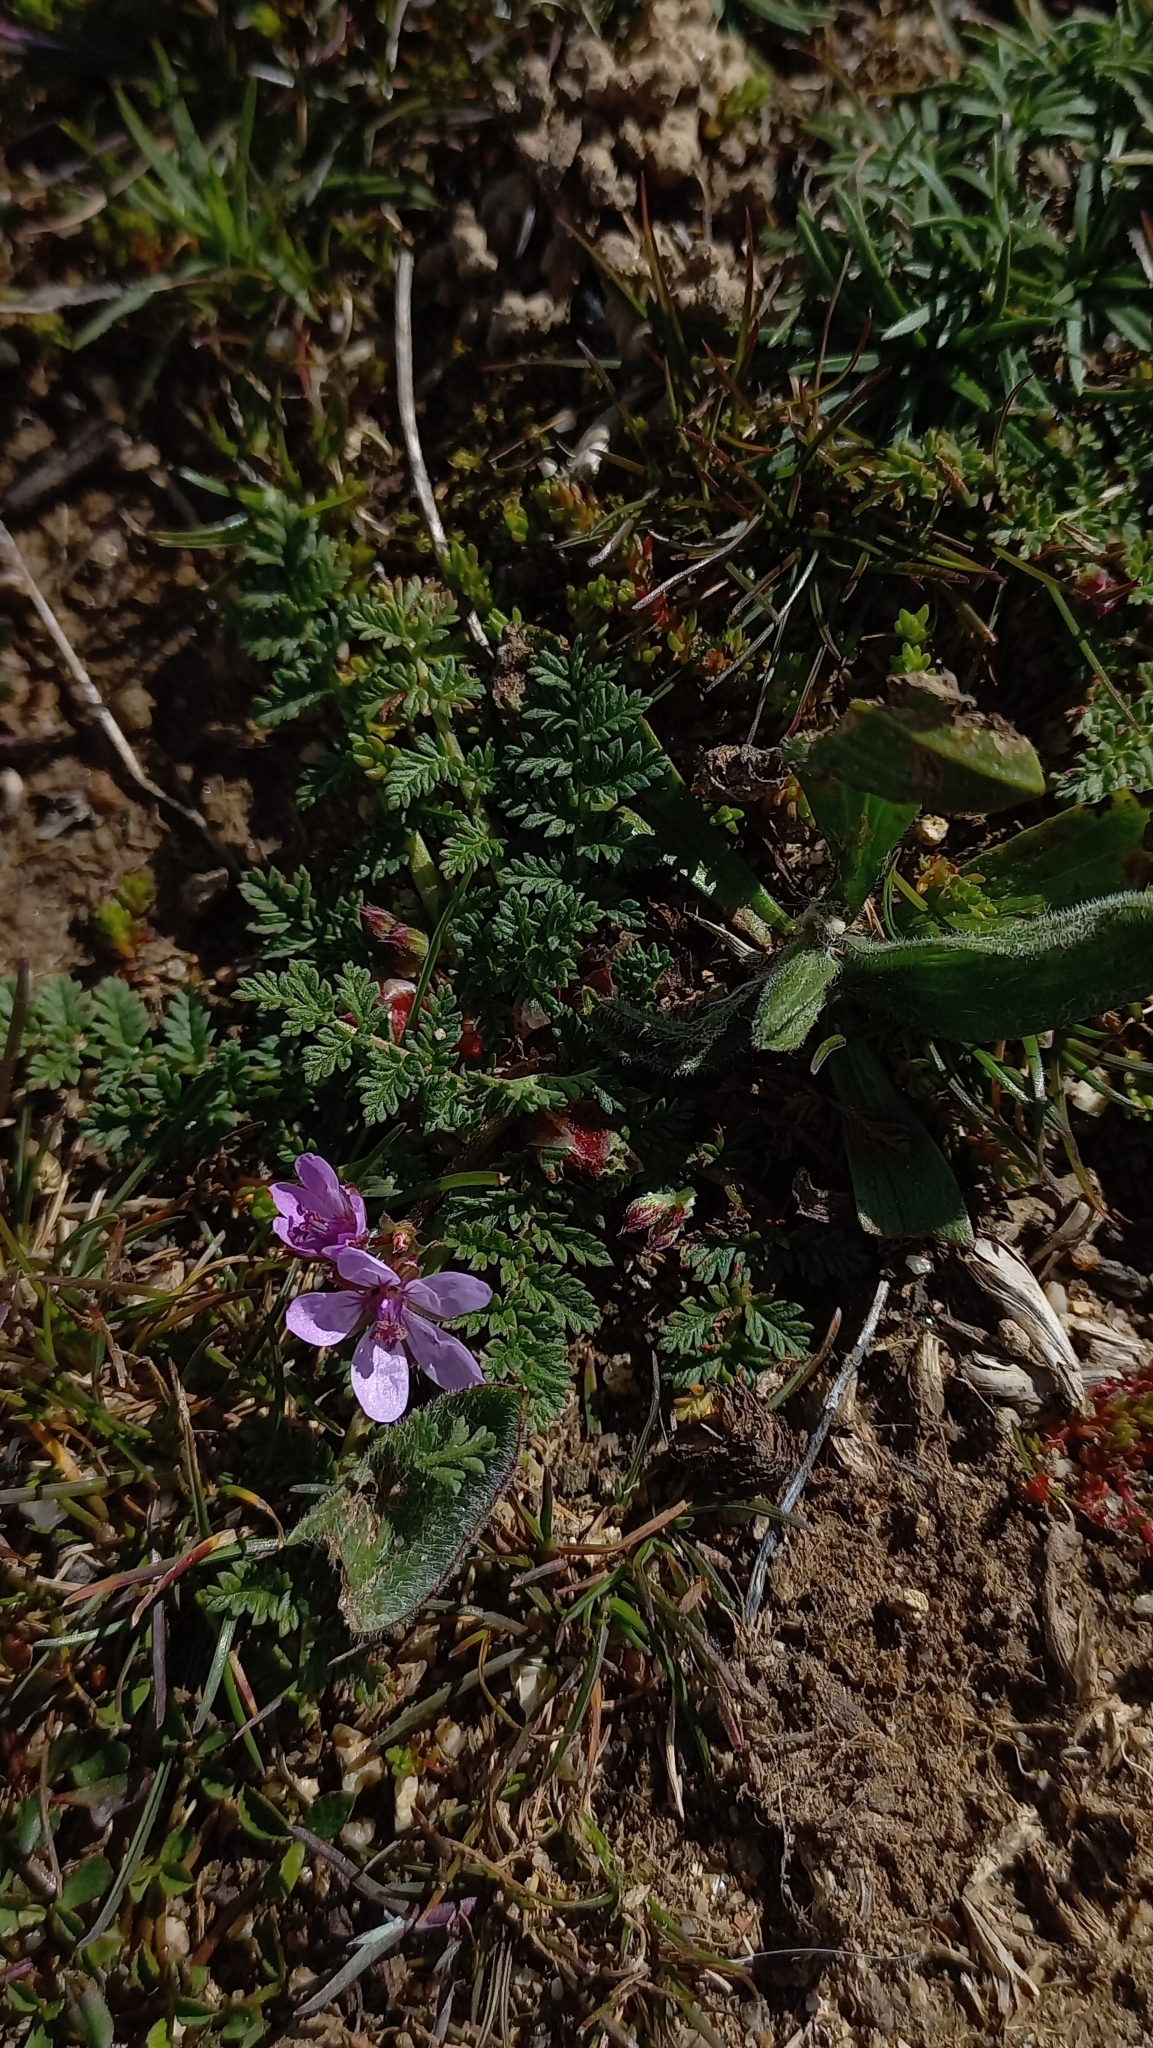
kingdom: Plantae
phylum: Tracheophyta
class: Magnoliopsida
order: Geraniales
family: Geraniaceae
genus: Erodium
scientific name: Erodium cicutarium
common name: Common stork's-bill
